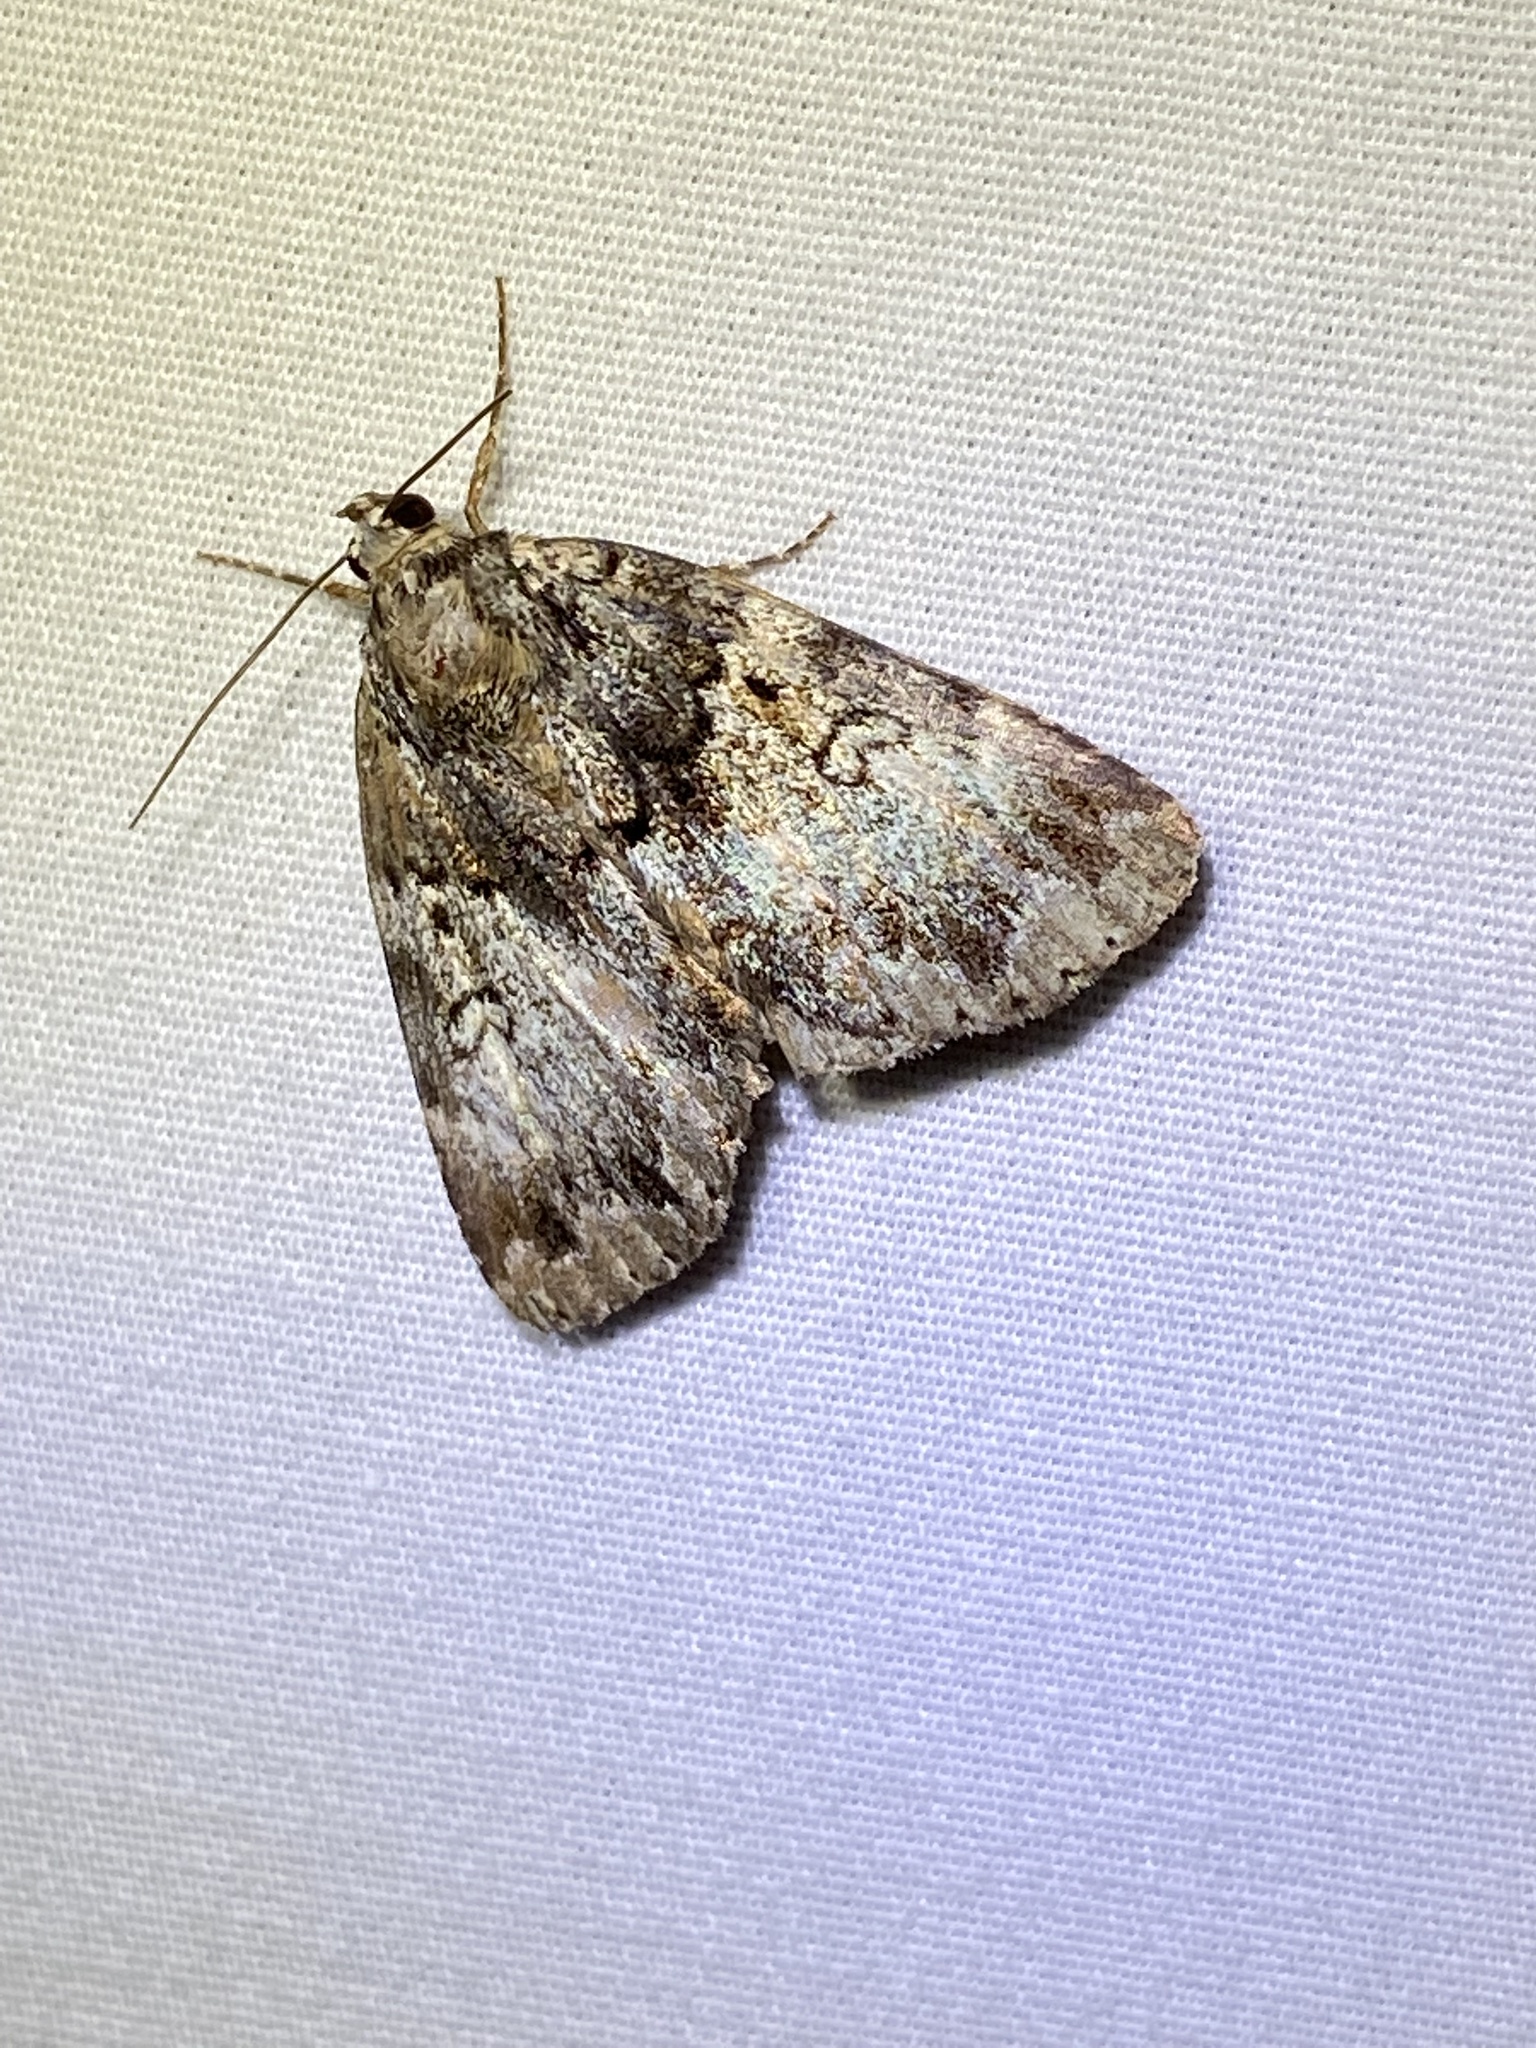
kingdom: Animalia
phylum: Arthropoda
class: Insecta
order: Lepidoptera
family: Erebidae
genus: Allotria
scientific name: Allotria elonympha
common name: False underwing
